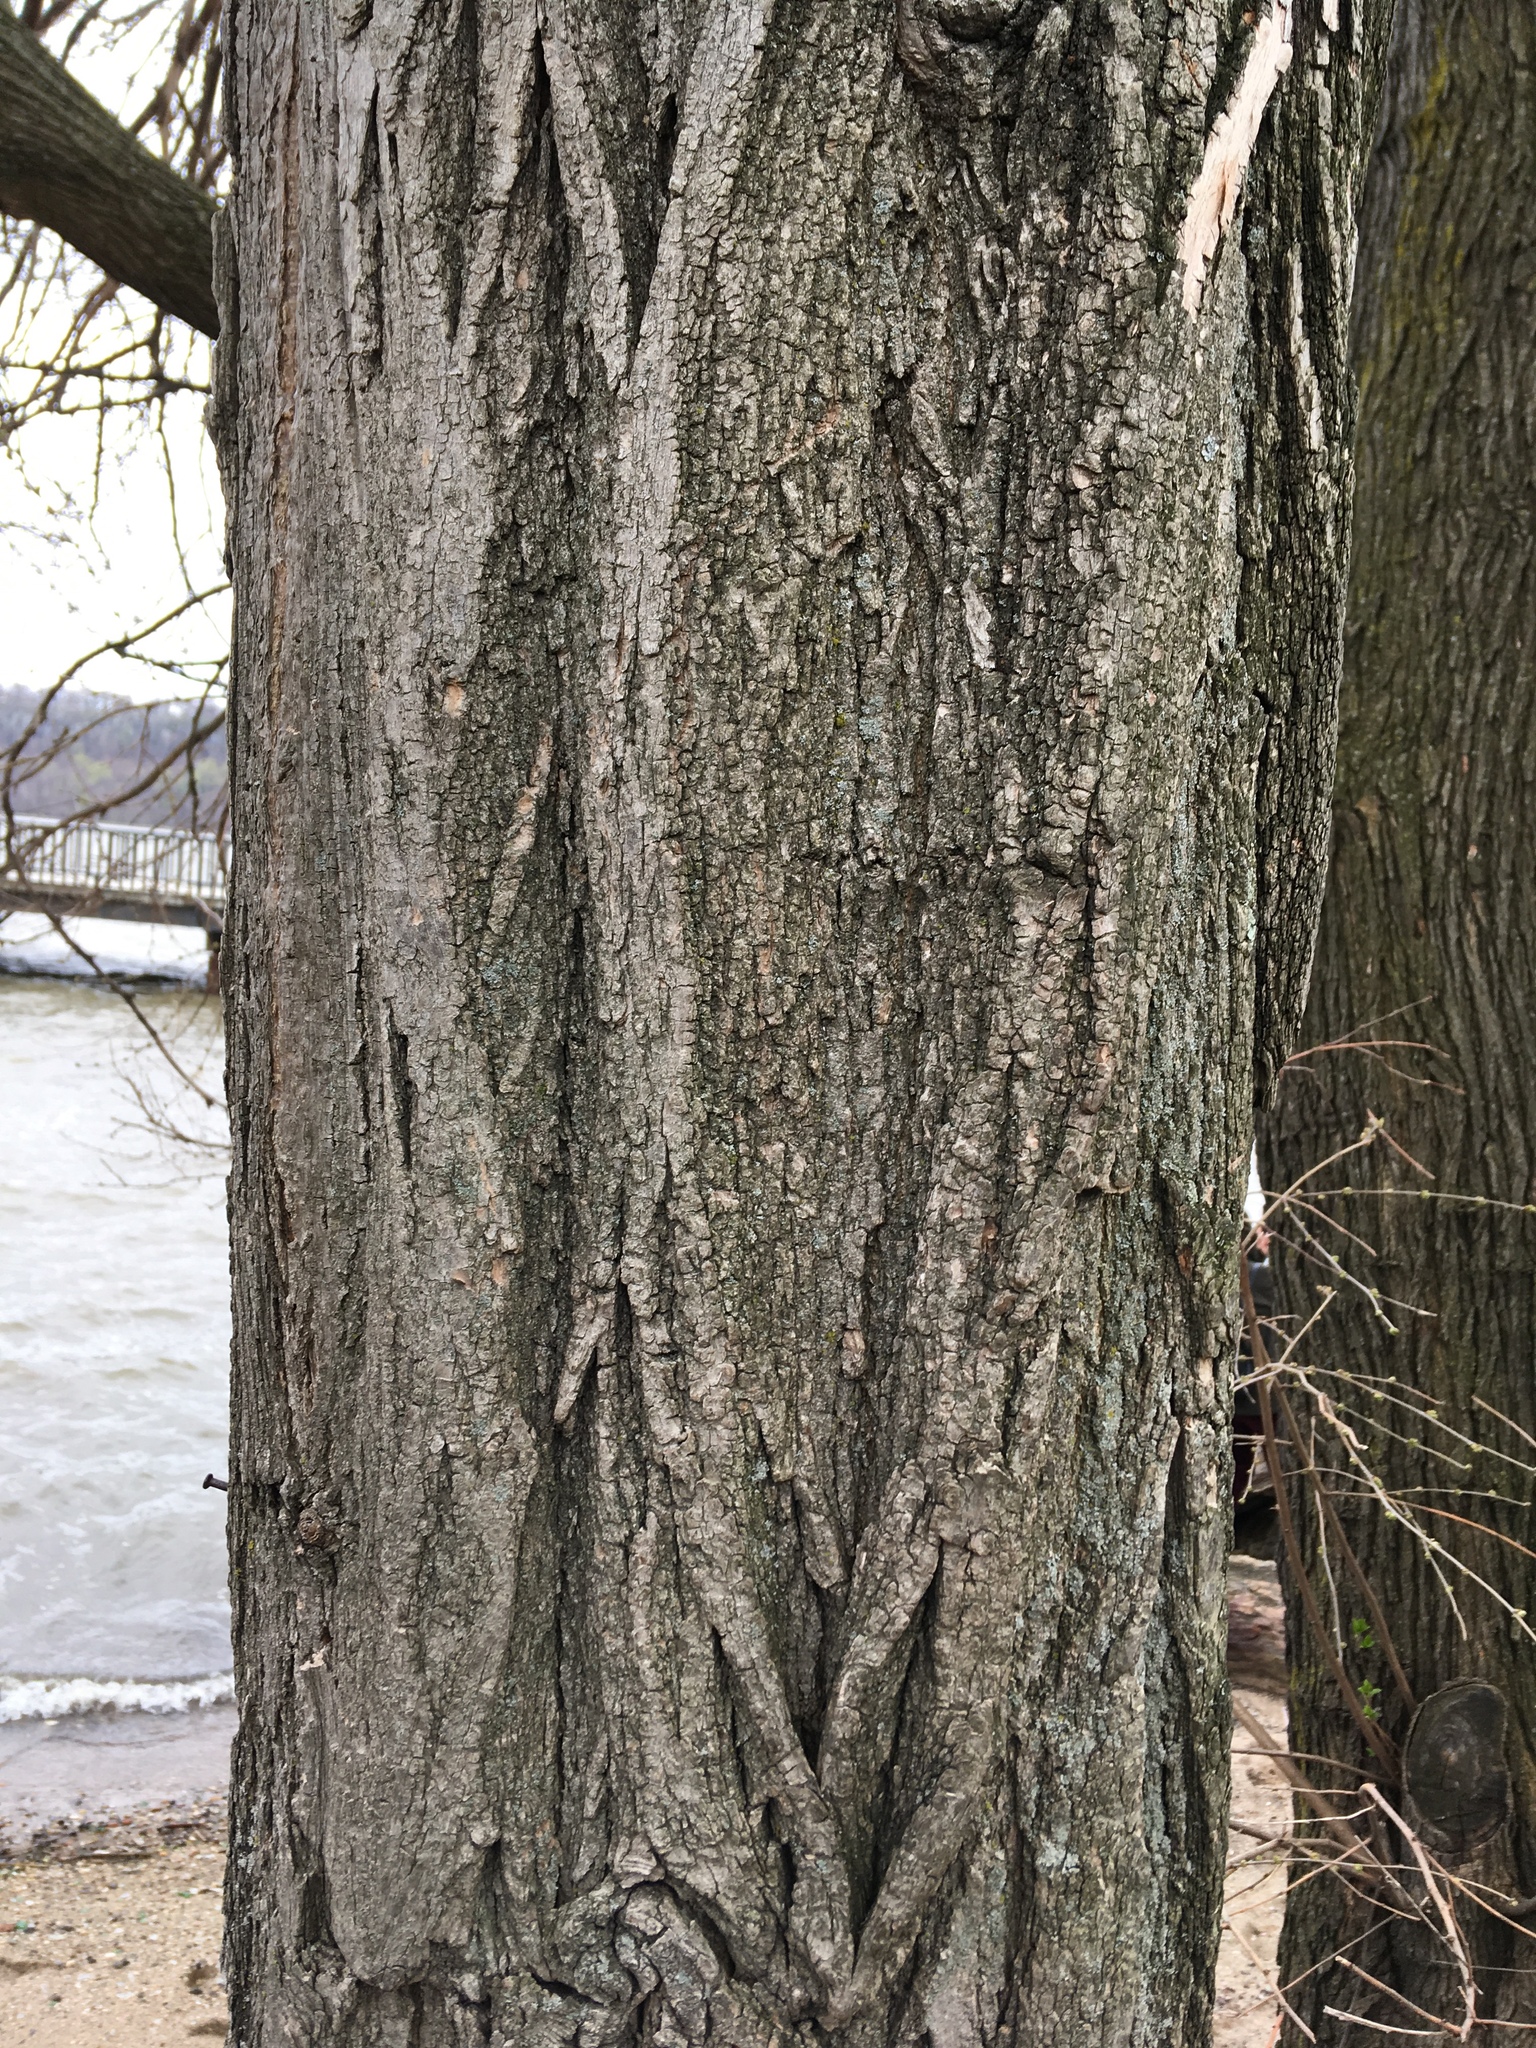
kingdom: Plantae
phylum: Tracheophyta
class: Magnoliopsida
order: Fabales
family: Fabaceae
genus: Robinia
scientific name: Robinia pseudoacacia
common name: Black locust
